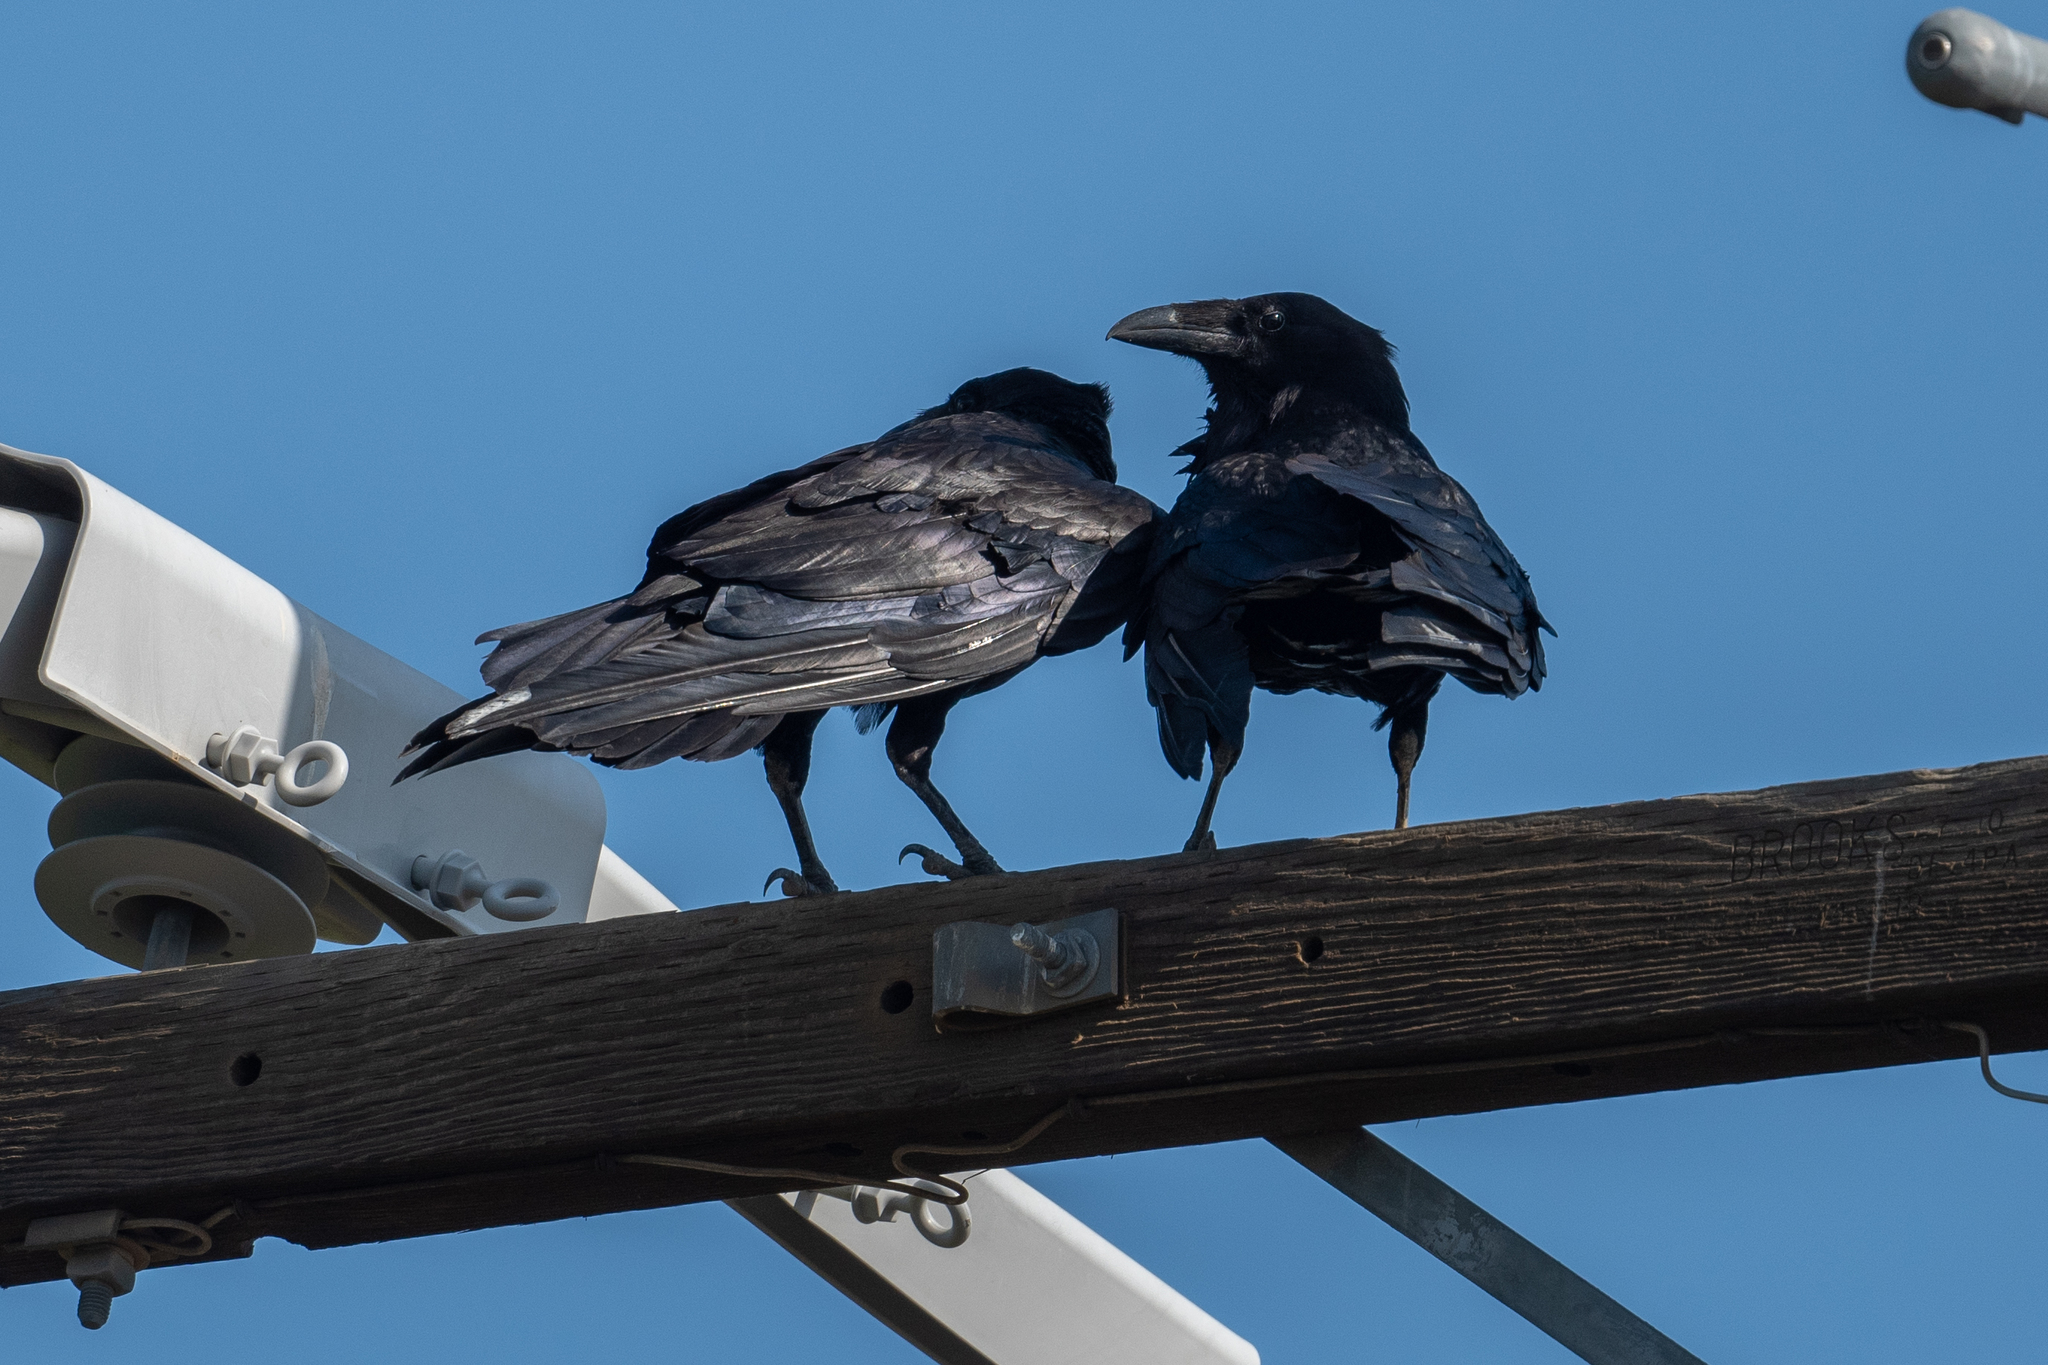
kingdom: Animalia
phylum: Chordata
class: Aves
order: Passeriformes
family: Corvidae
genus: Corvus
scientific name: Corvus corax
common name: Common raven
